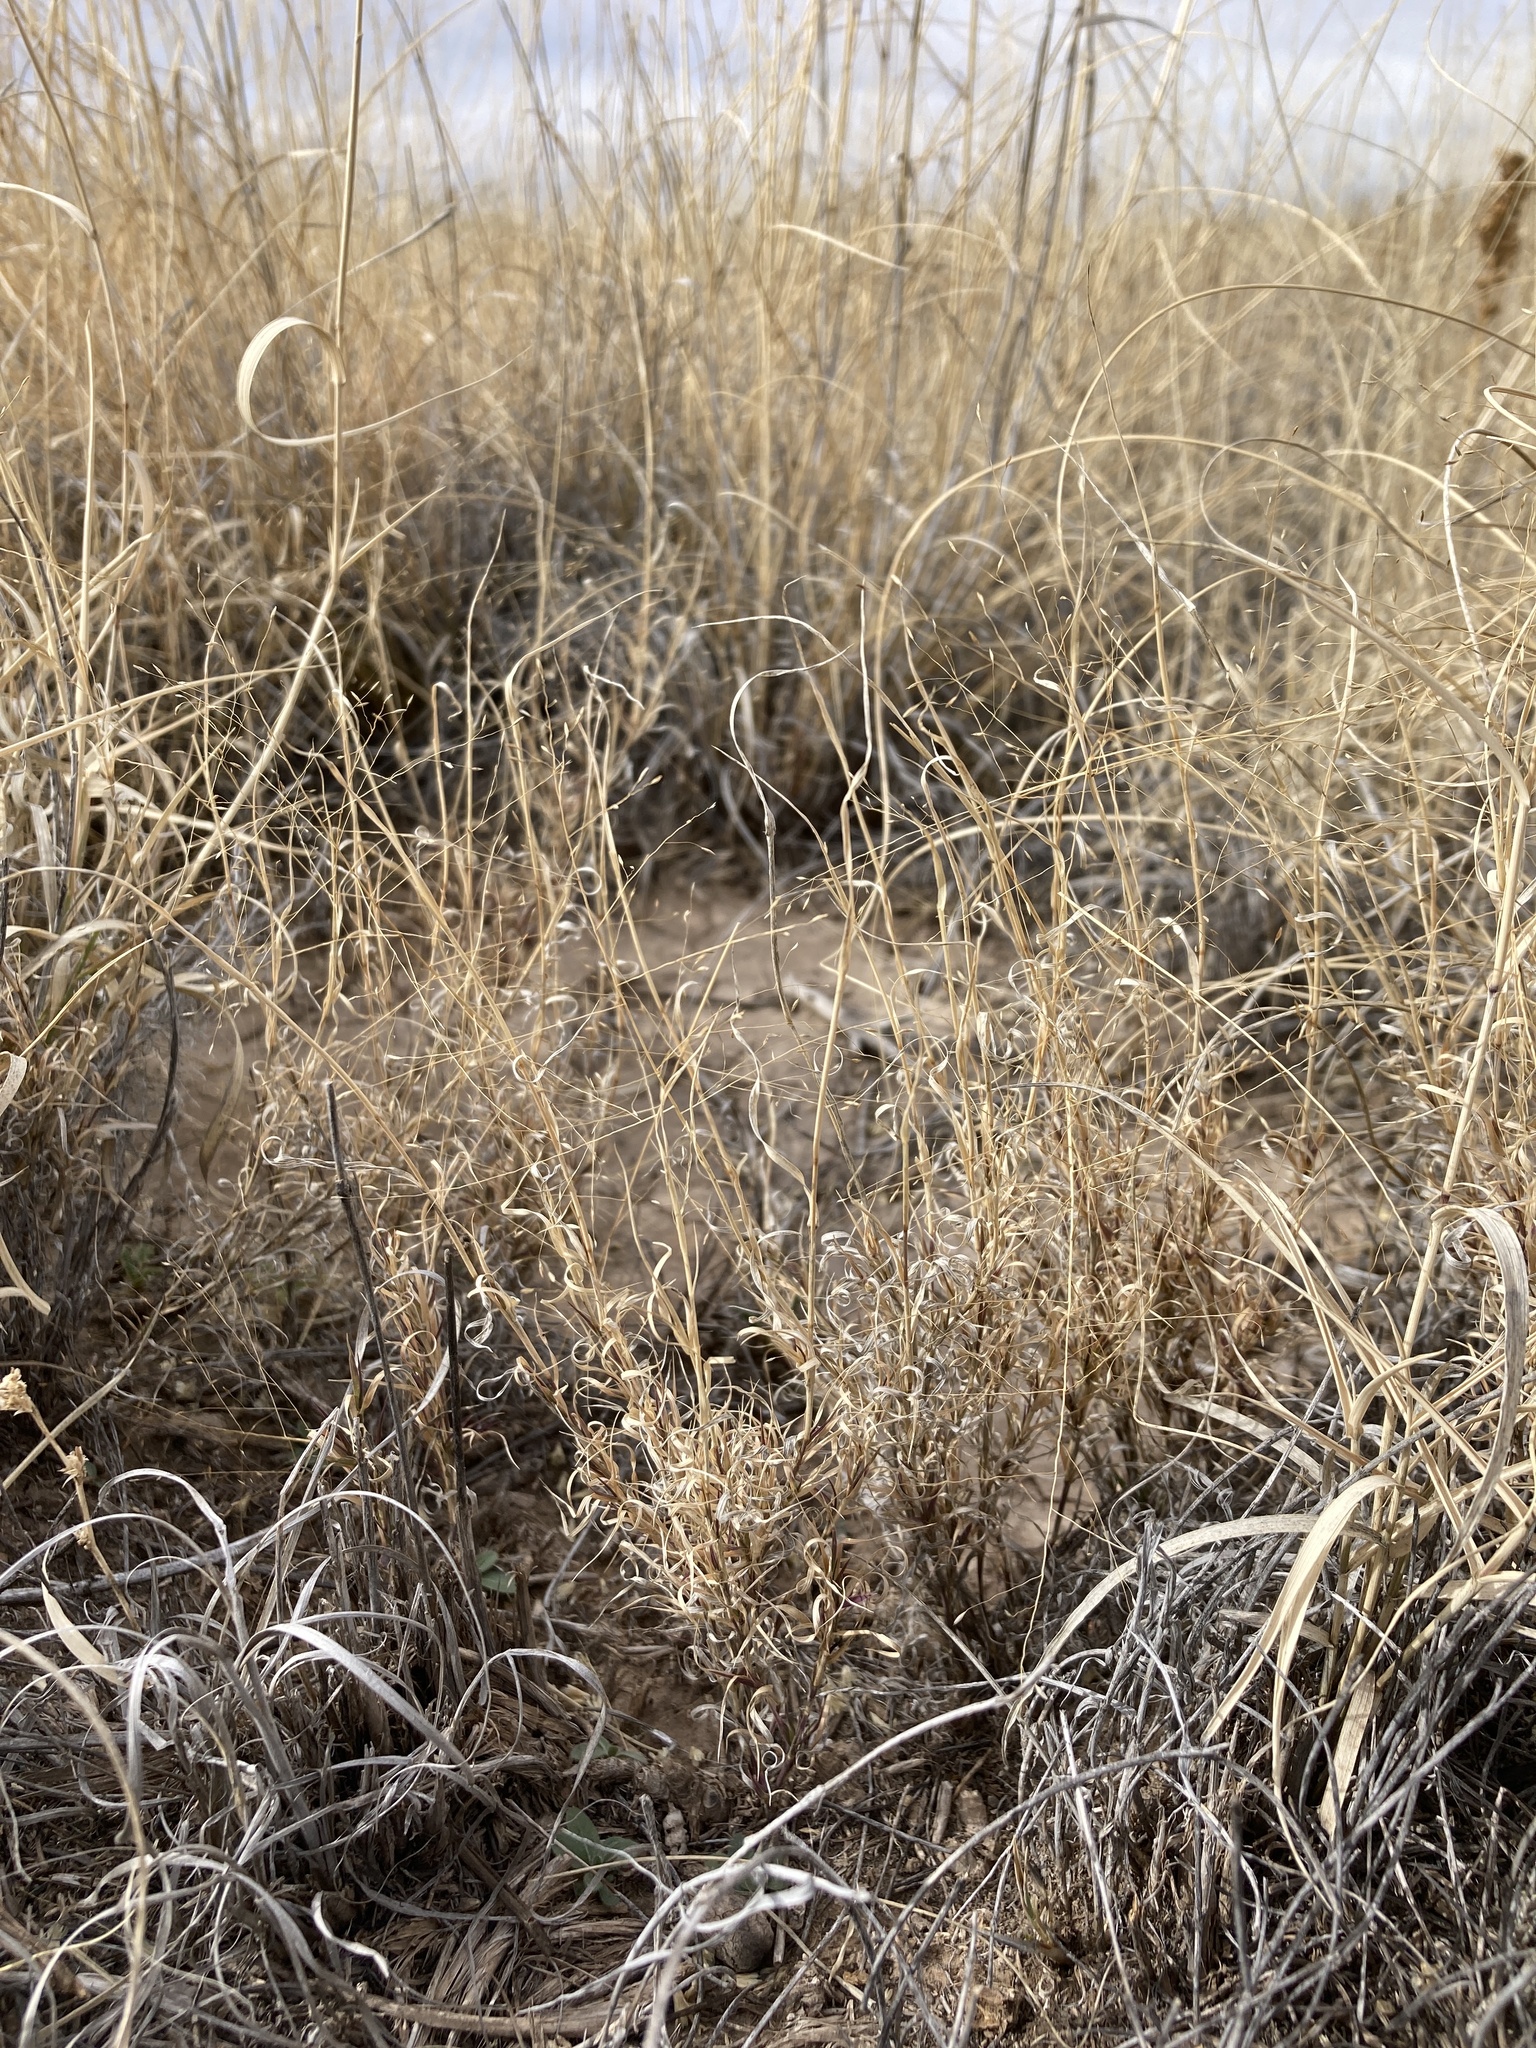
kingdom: Plantae
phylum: Tracheophyta
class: Liliopsida
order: Poales
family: Poaceae
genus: Muhlenbergia
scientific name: Muhlenbergia arenacea
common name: Ear muhly
